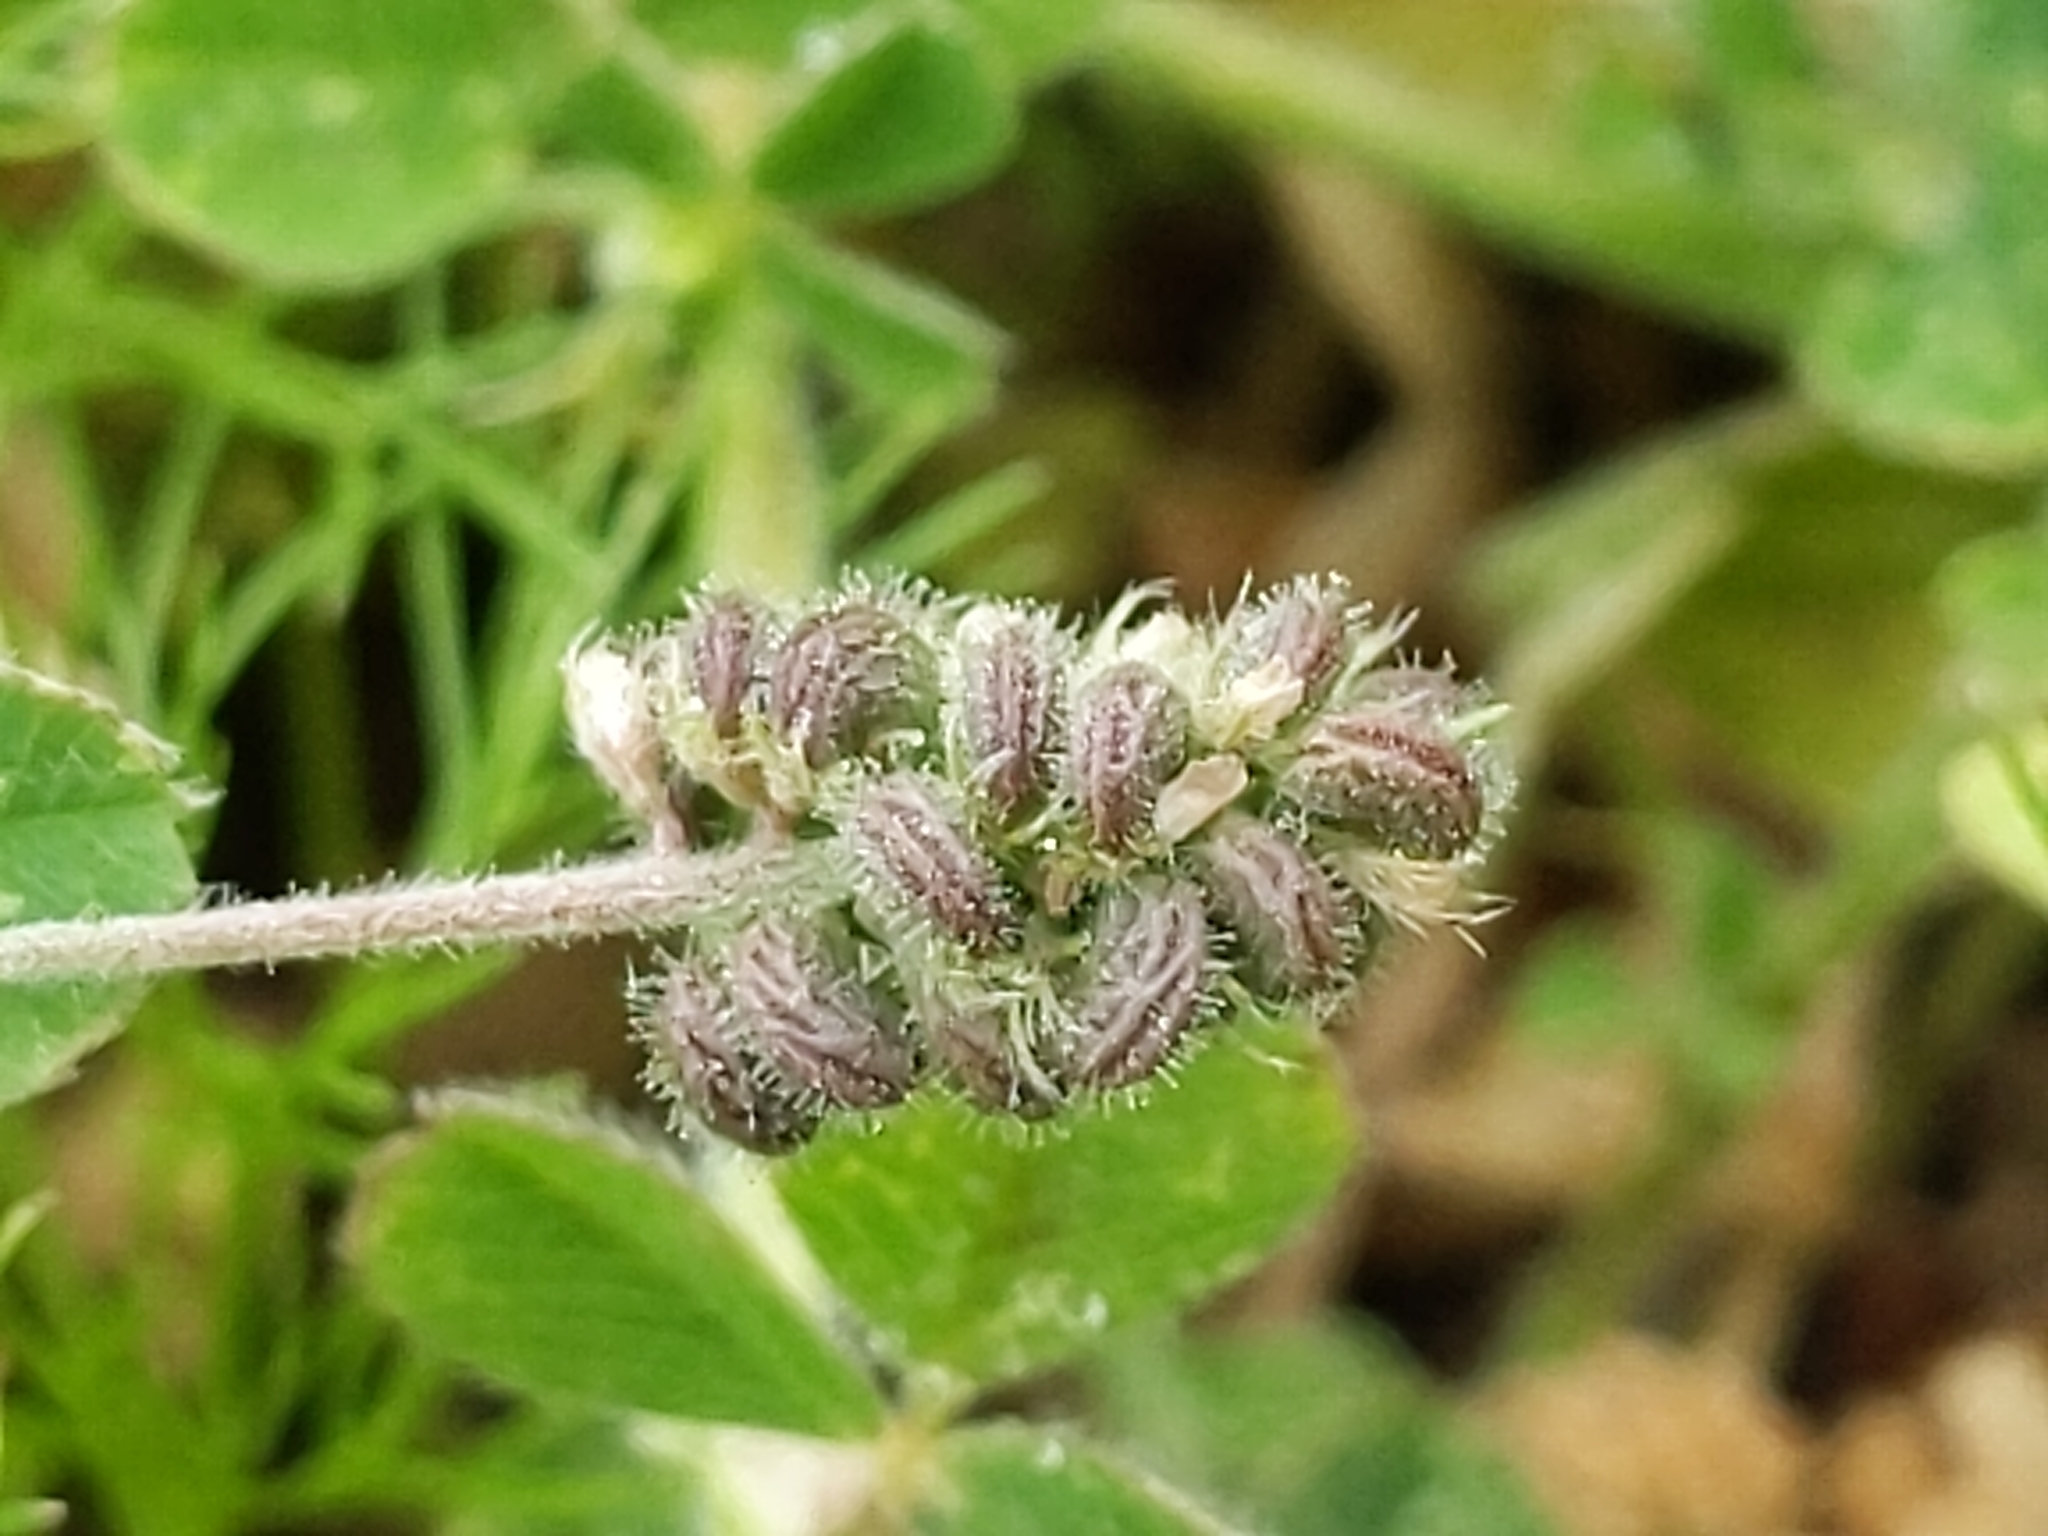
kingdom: Plantae
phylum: Tracheophyta
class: Magnoliopsida
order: Fabales
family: Fabaceae
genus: Medicago
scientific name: Medicago lupulina
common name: Black medick
